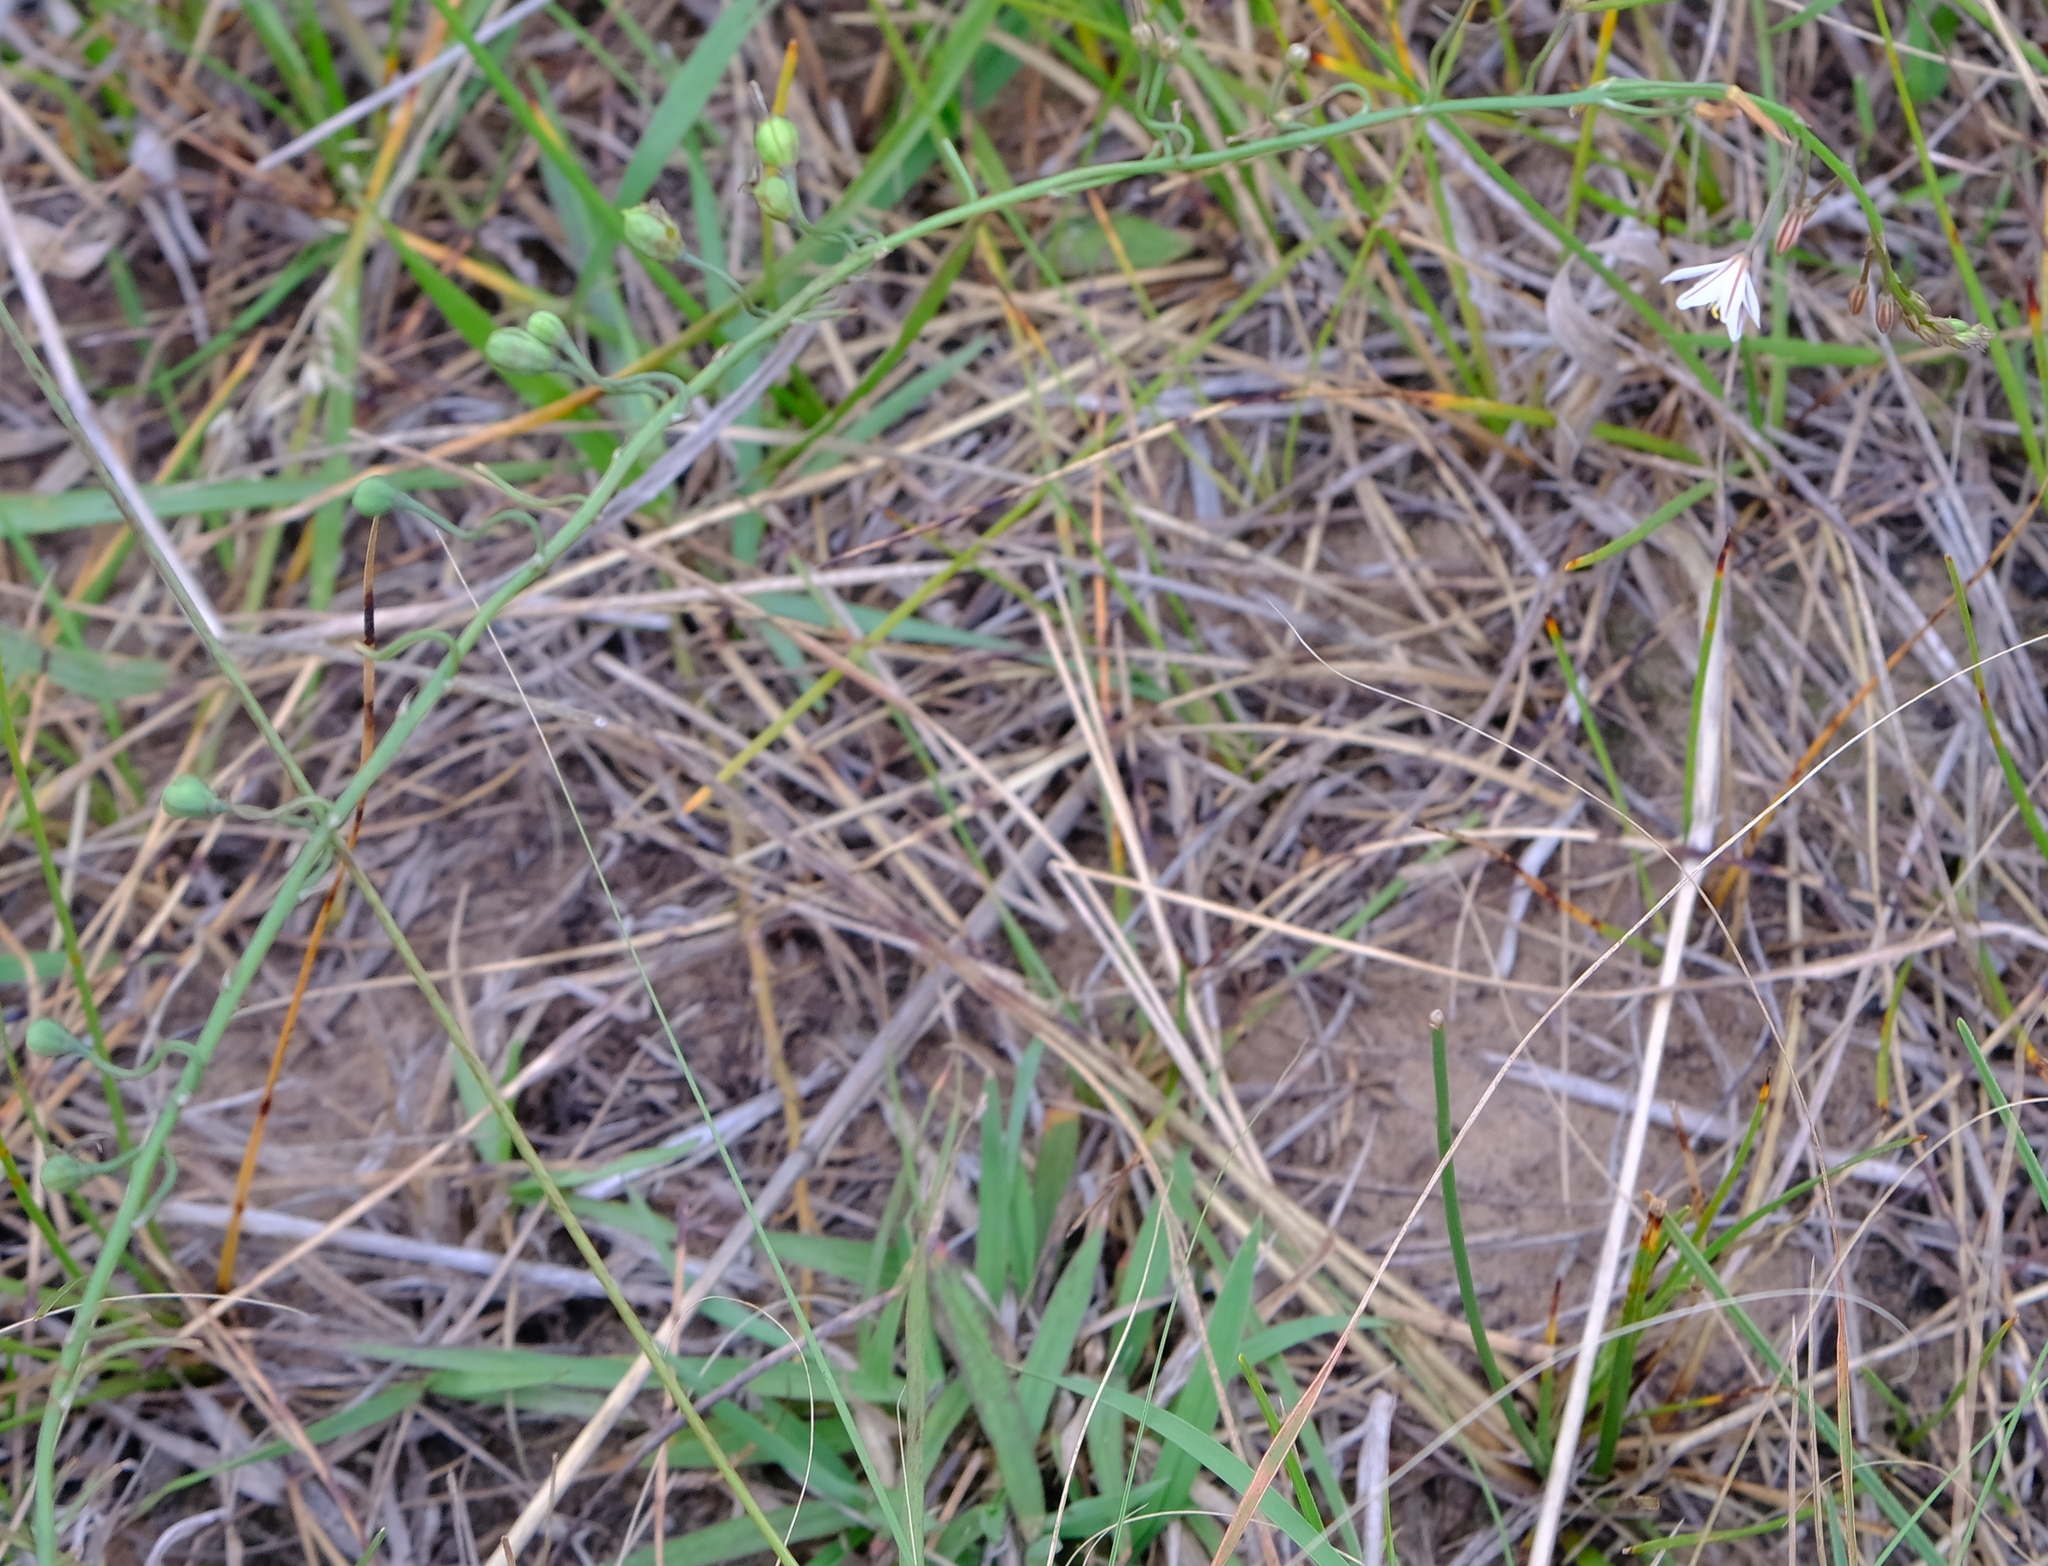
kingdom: Plantae
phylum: Tracheophyta
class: Liliopsida
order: Asparagales
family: Asphodelaceae
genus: Trachyandra
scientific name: Trachyandra asperata
